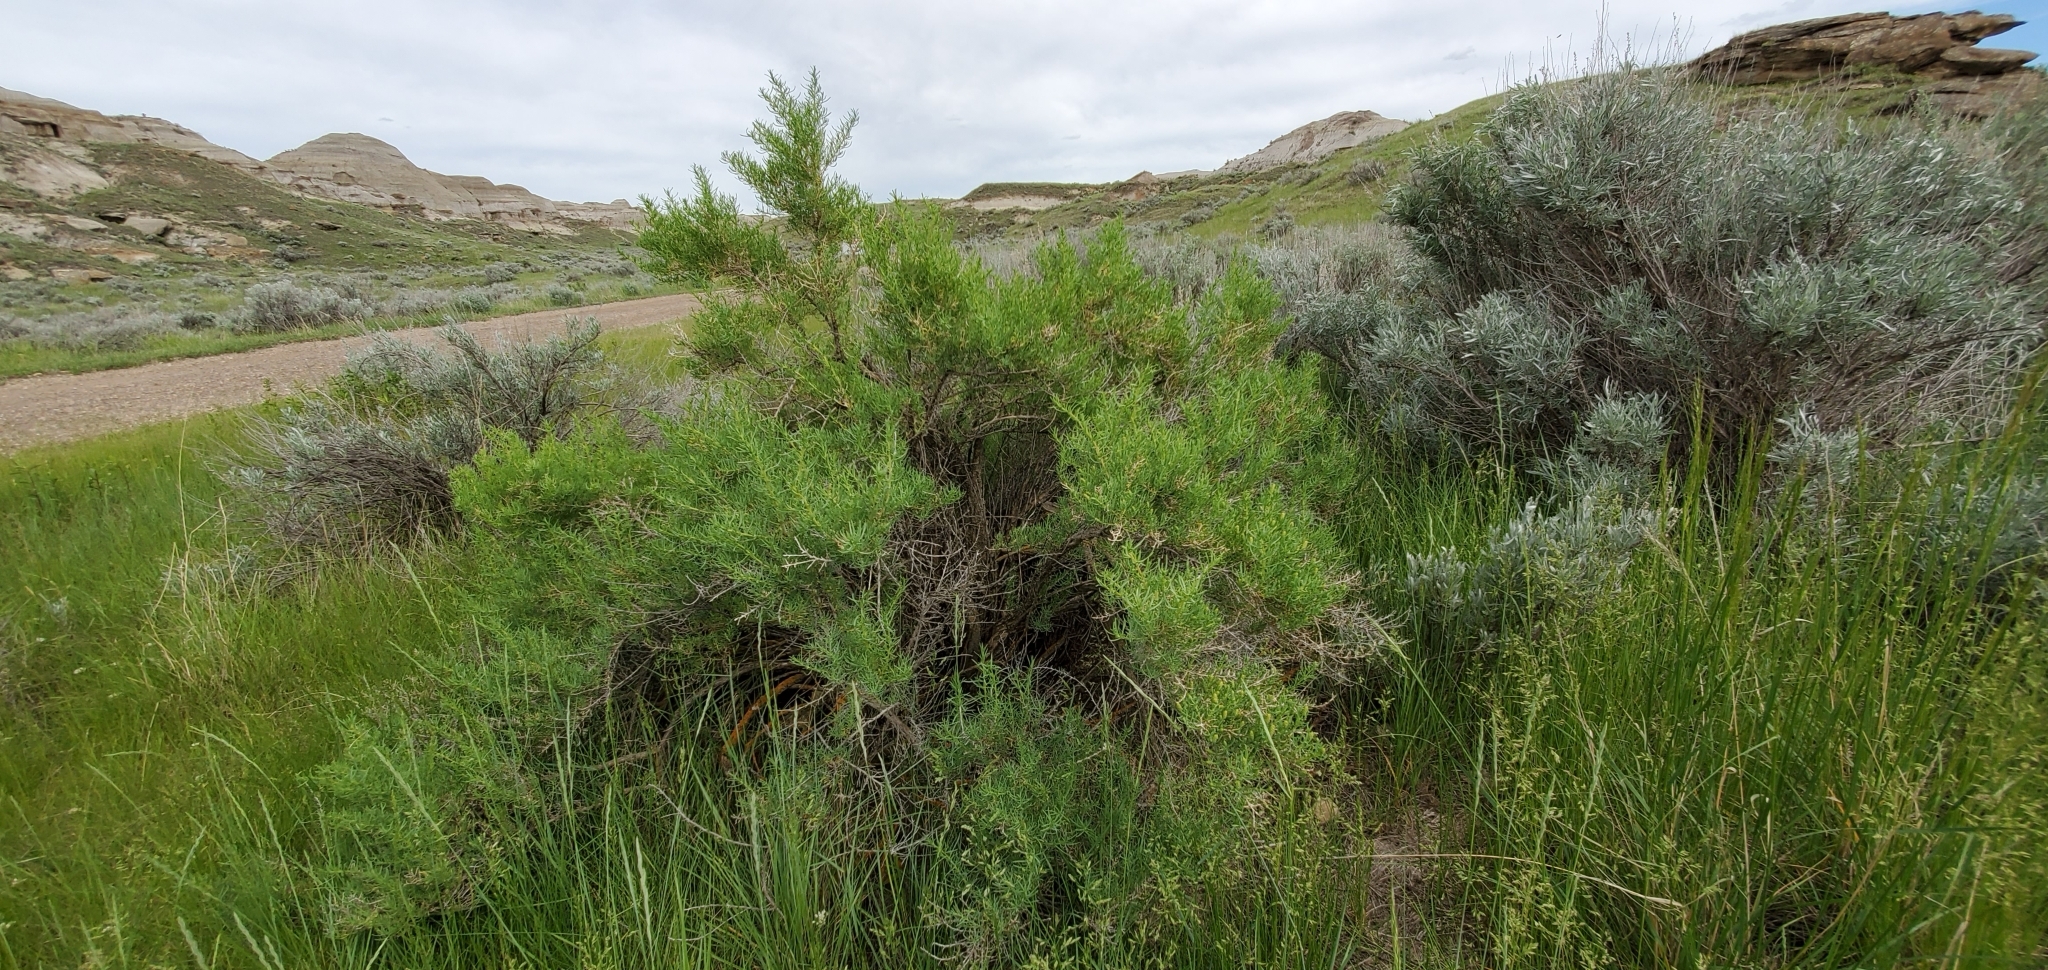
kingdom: Plantae
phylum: Tracheophyta
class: Magnoliopsida
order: Caryophyllales
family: Sarcobataceae
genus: Sarcobatus
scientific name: Sarcobatus vermiculatus
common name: Greasewood
